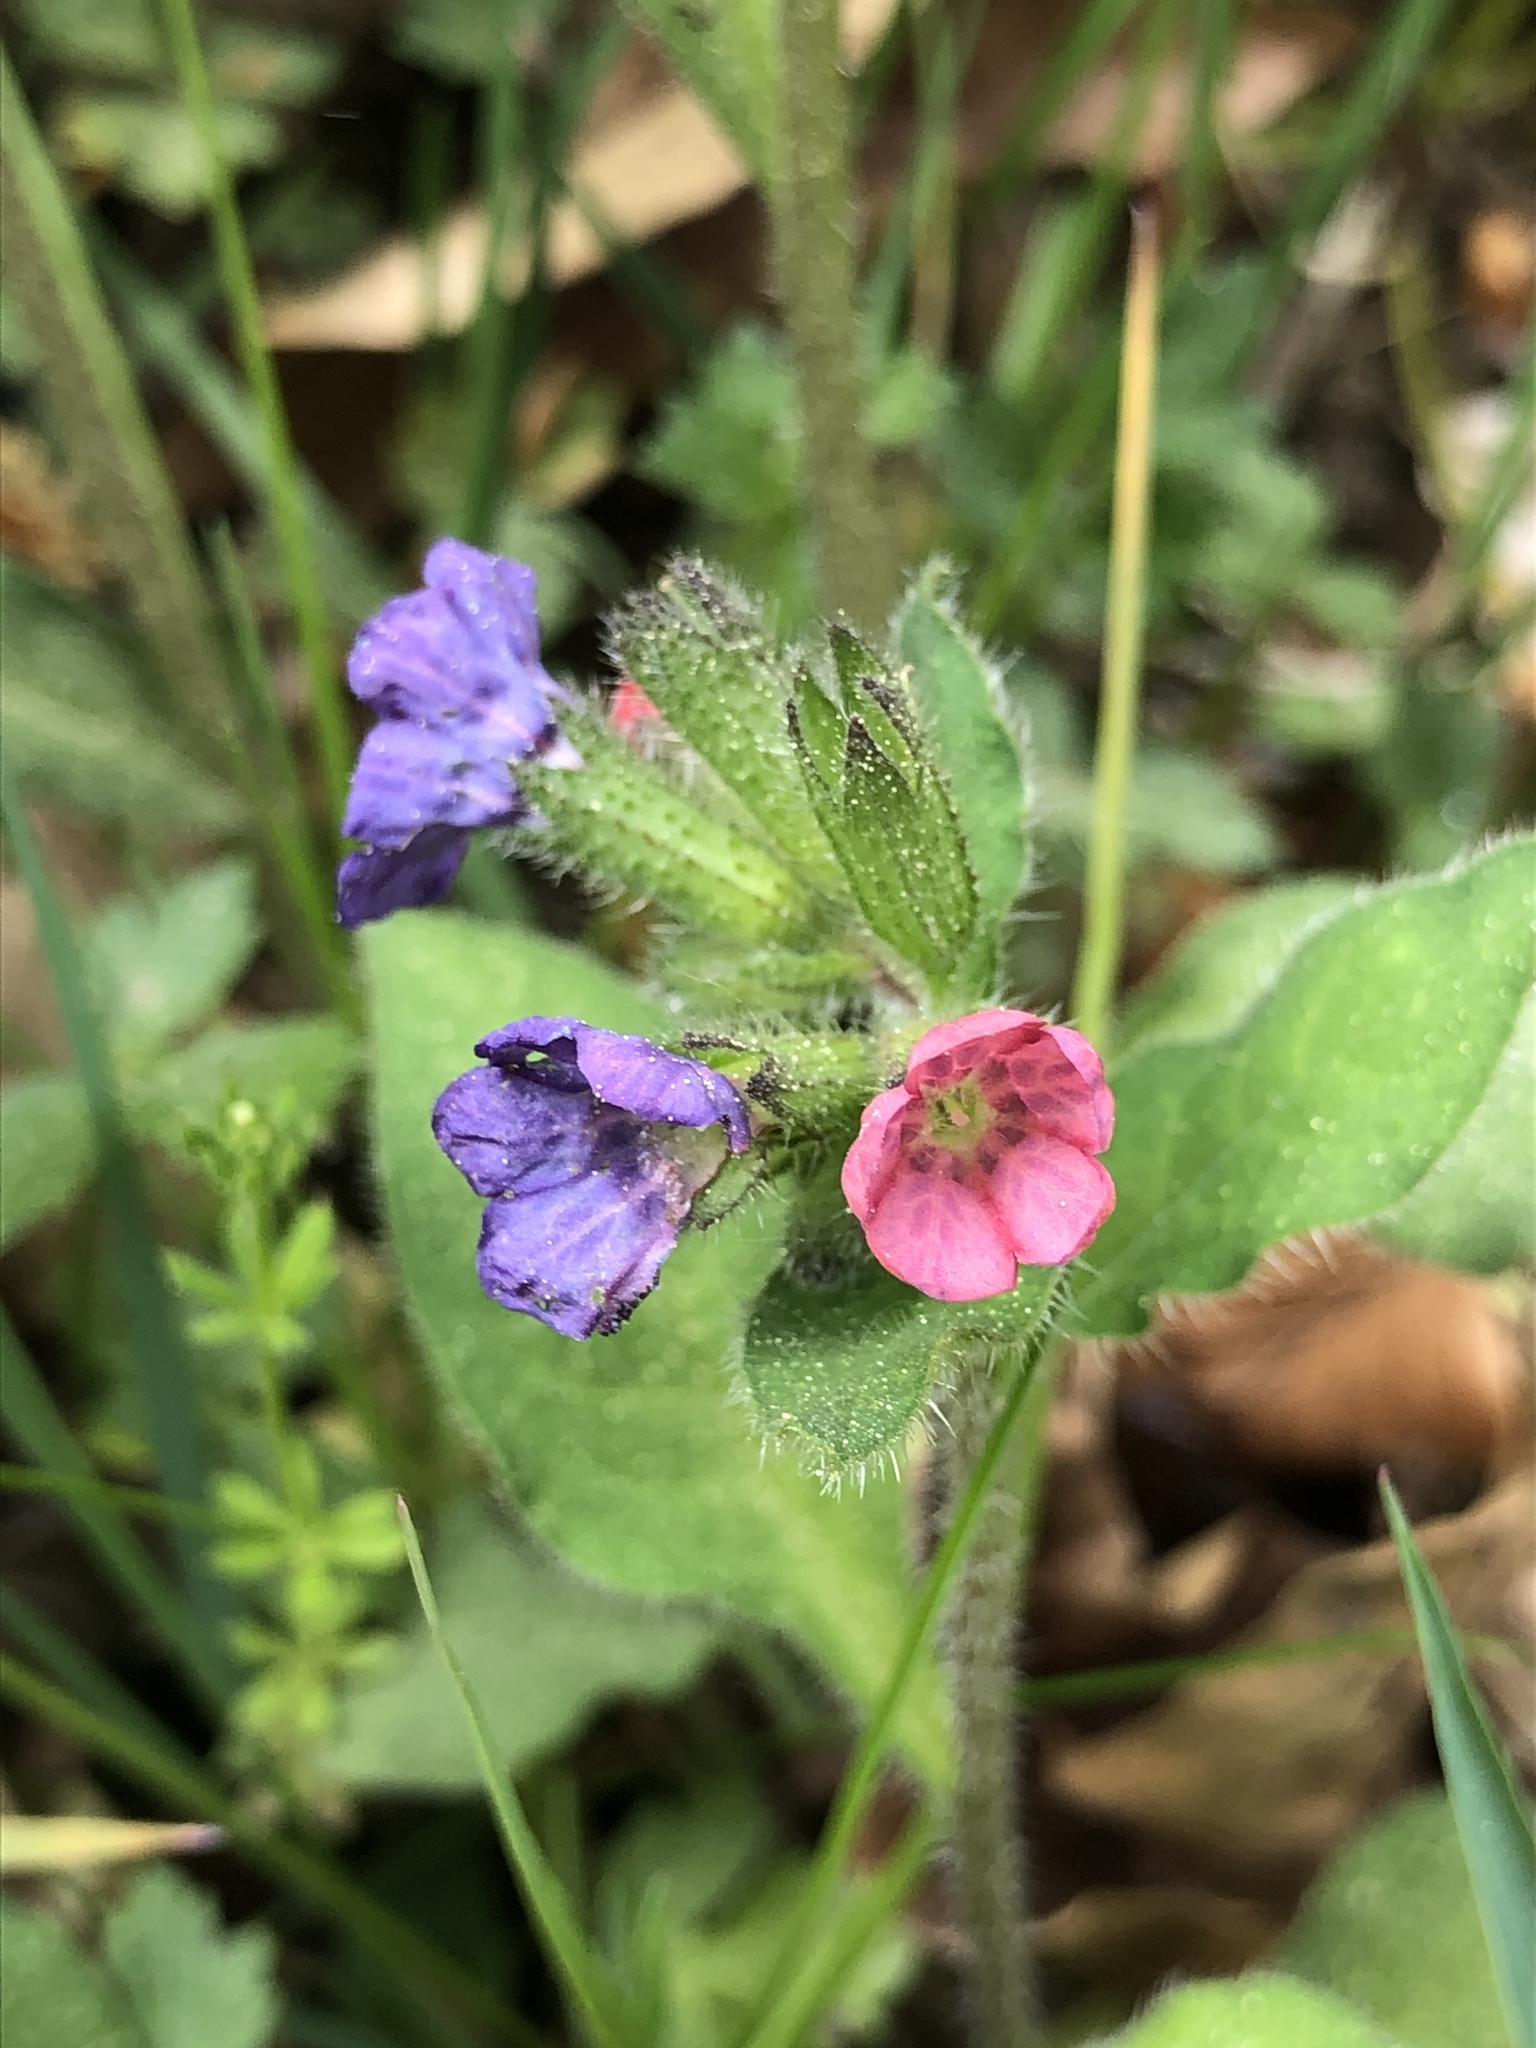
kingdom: Plantae
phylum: Tracheophyta
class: Magnoliopsida
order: Boraginales
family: Boraginaceae
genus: Pulmonaria
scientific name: Pulmonaria obscura
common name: Suffolk lungwort
